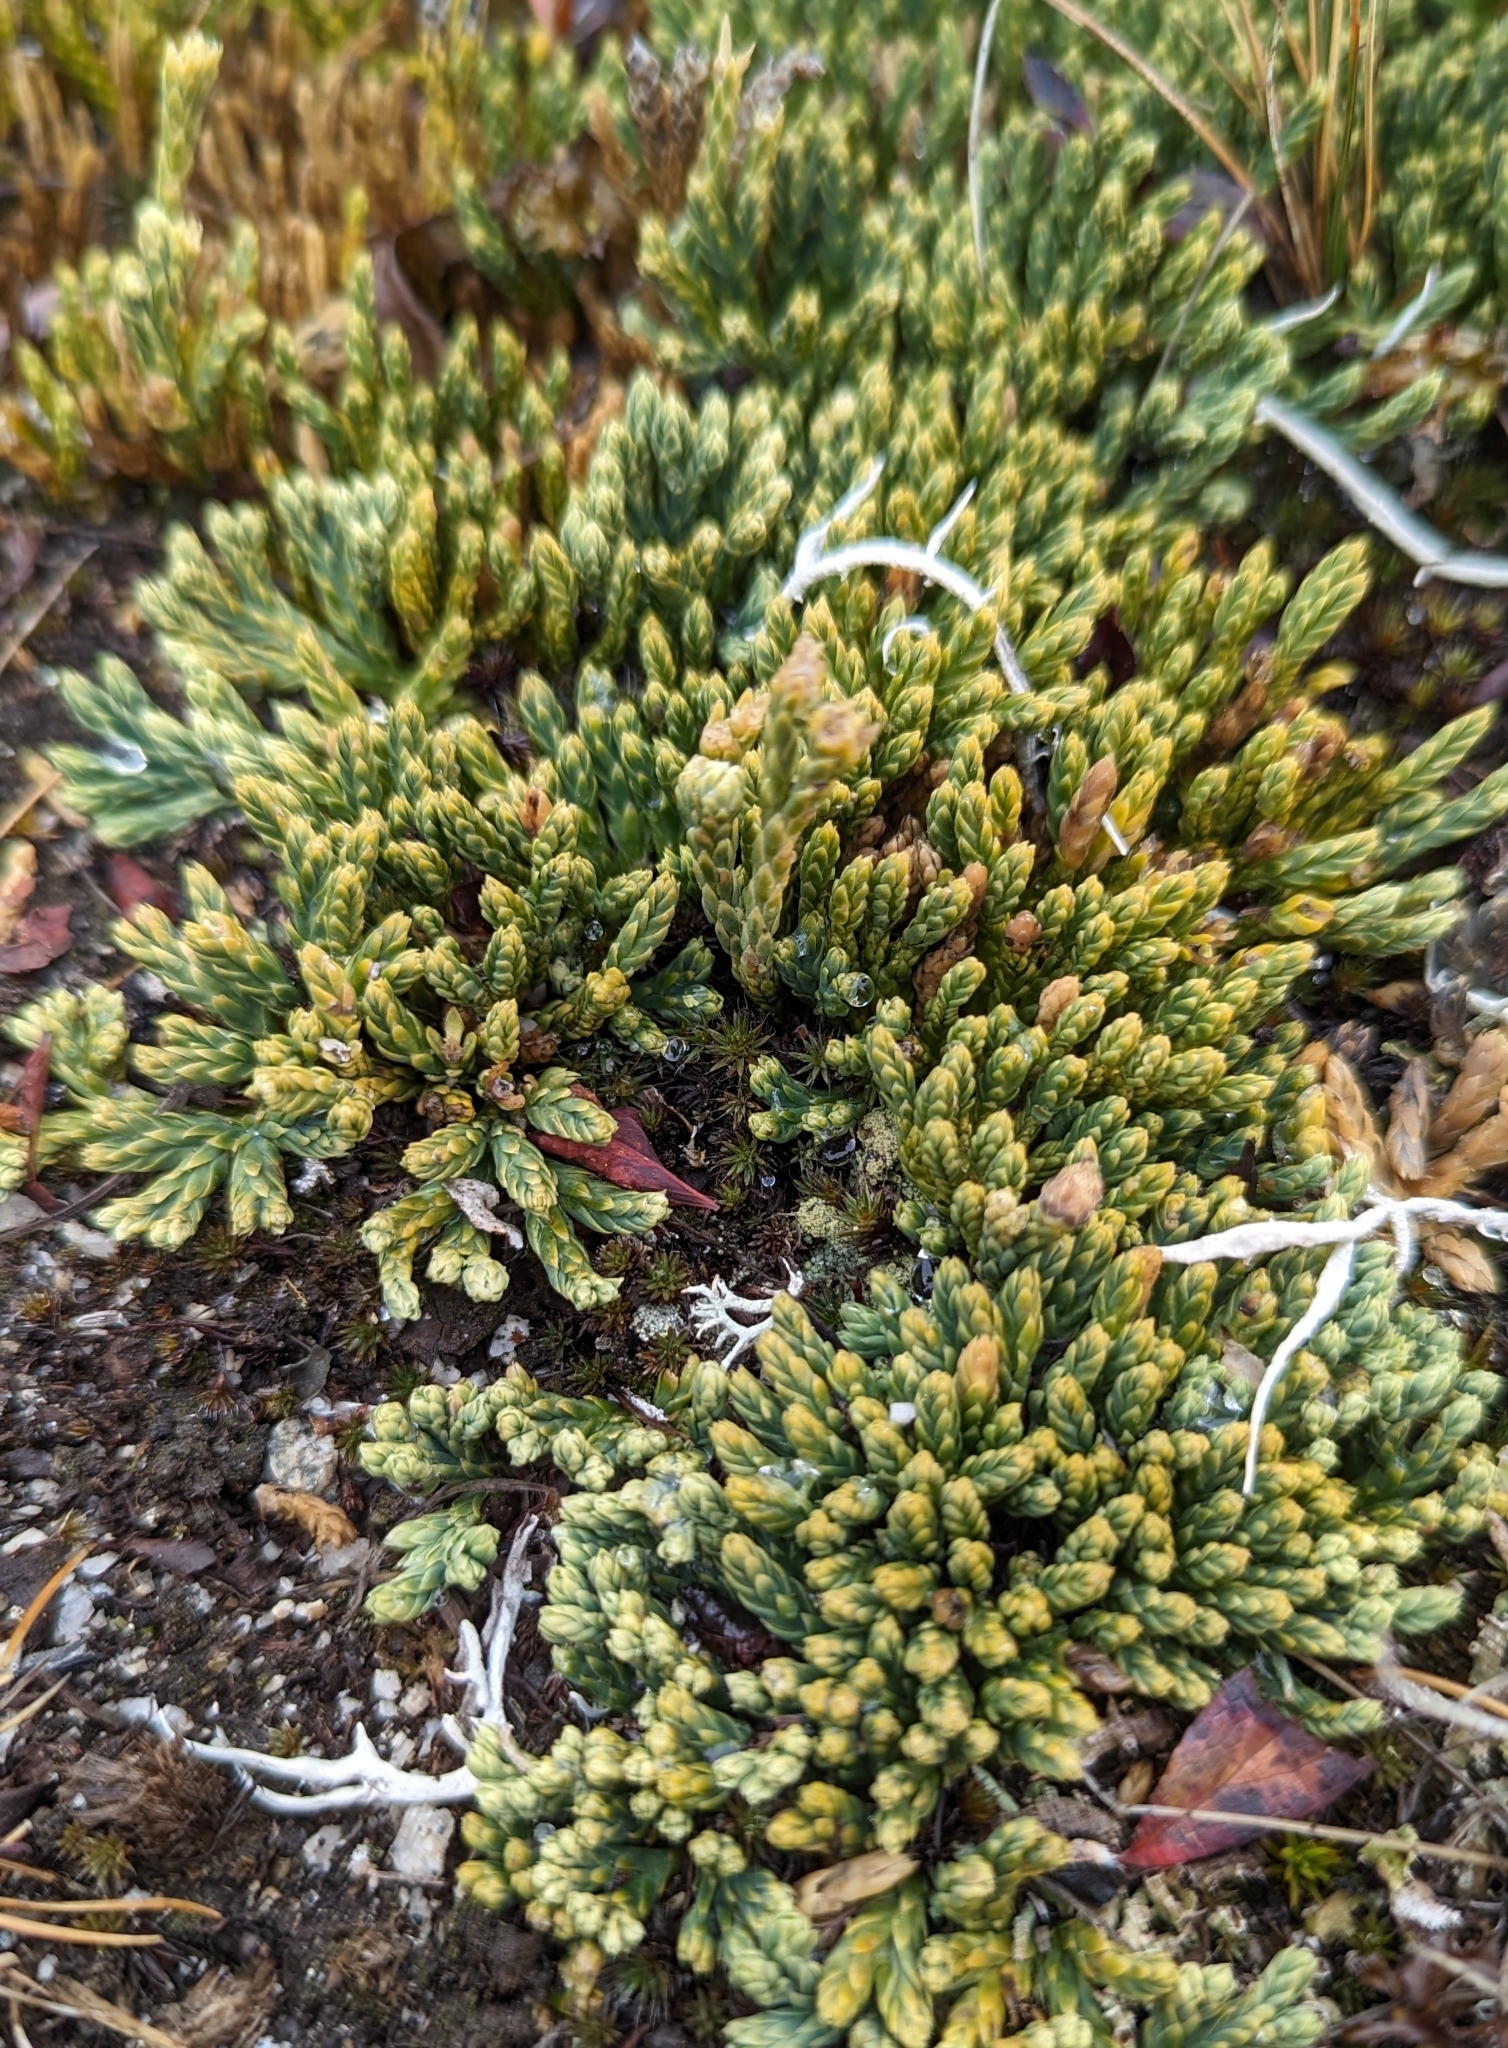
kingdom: Plantae
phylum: Tracheophyta
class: Lycopodiopsida
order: Lycopodiales
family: Lycopodiaceae
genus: Diphasiastrum
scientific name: Diphasiastrum alpinum
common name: Alpine clubmoss
